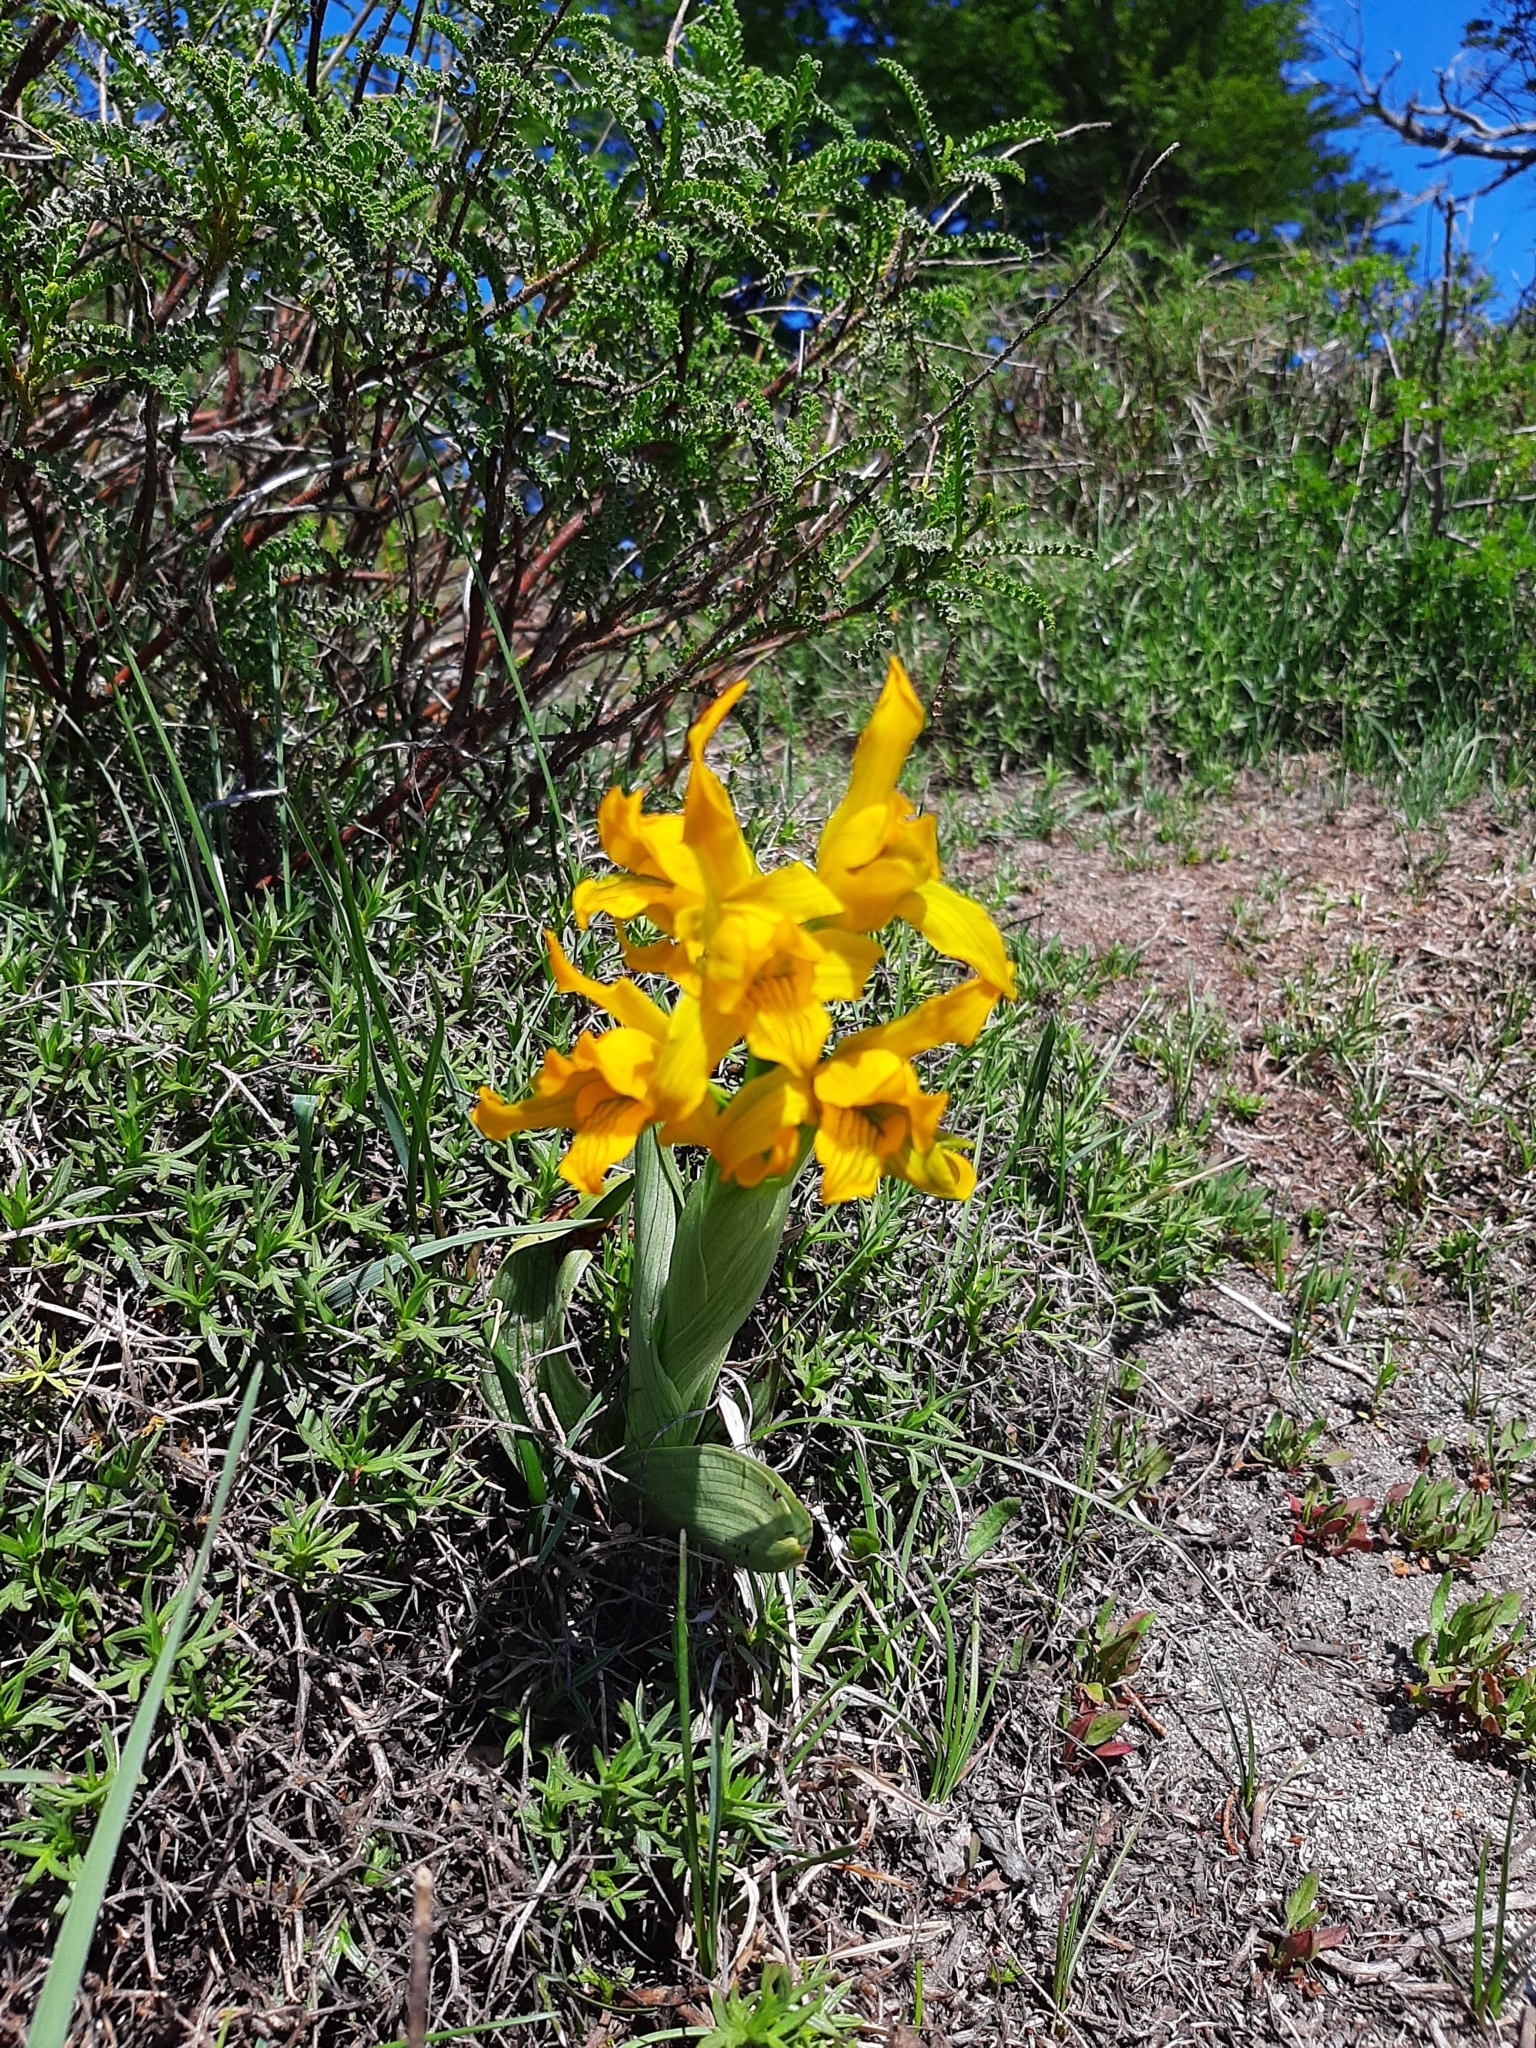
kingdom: Plantae
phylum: Tracheophyta
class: Liliopsida
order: Asparagales
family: Orchidaceae
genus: Chloraea
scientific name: Chloraea alpina
